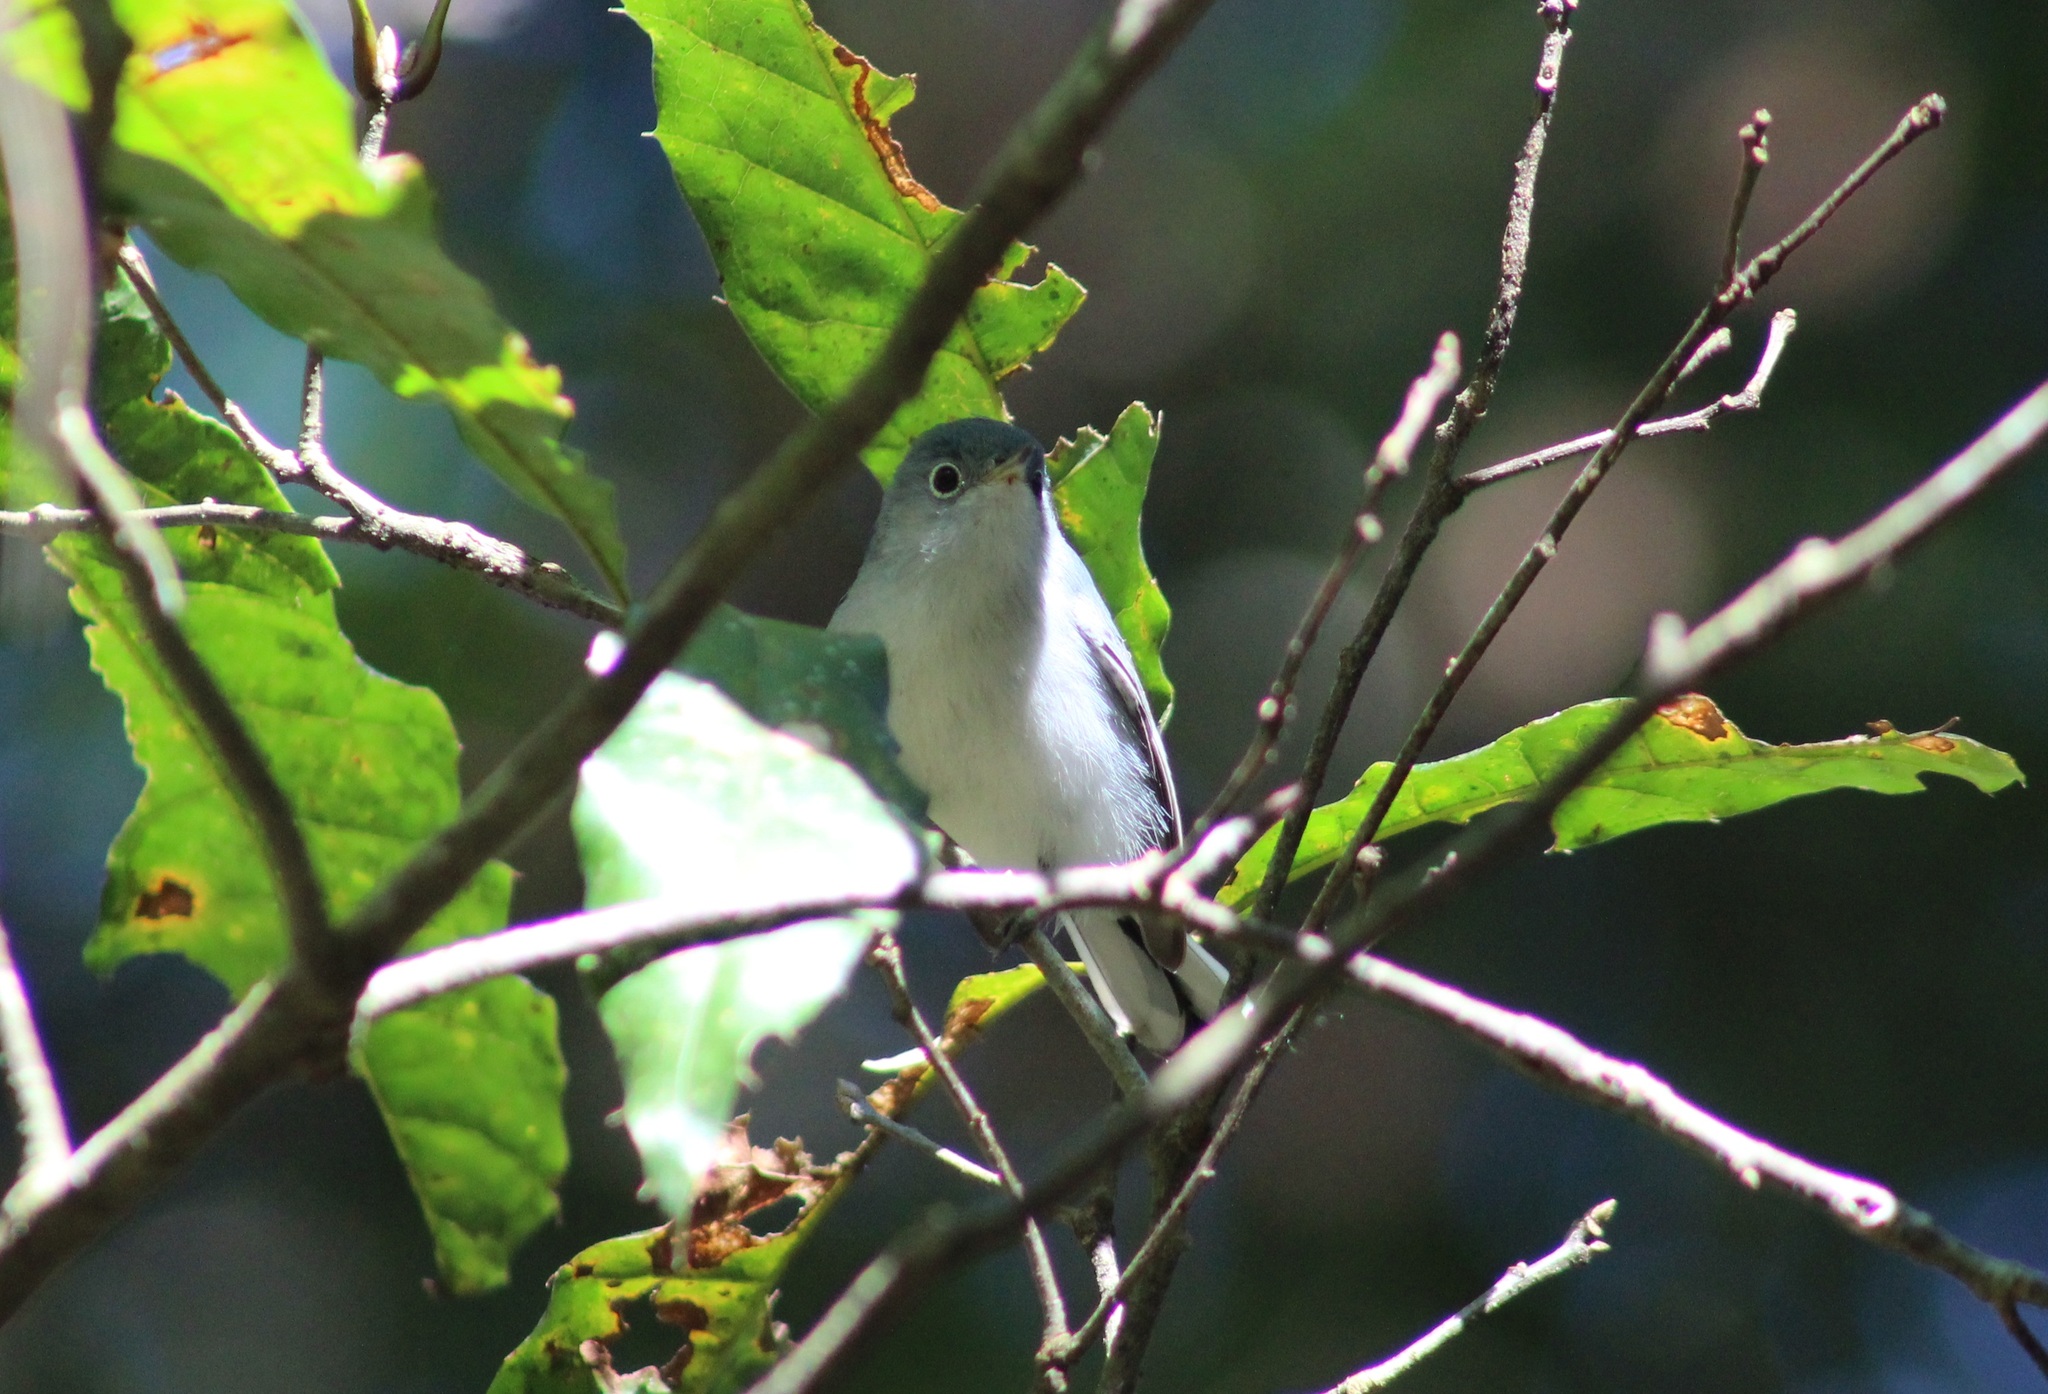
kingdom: Animalia
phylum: Chordata
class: Aves
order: Passeriformes
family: Polioptilidae
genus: Polioptila
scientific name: Polioptila caerulea
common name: Blue-gray gnatcatcher
